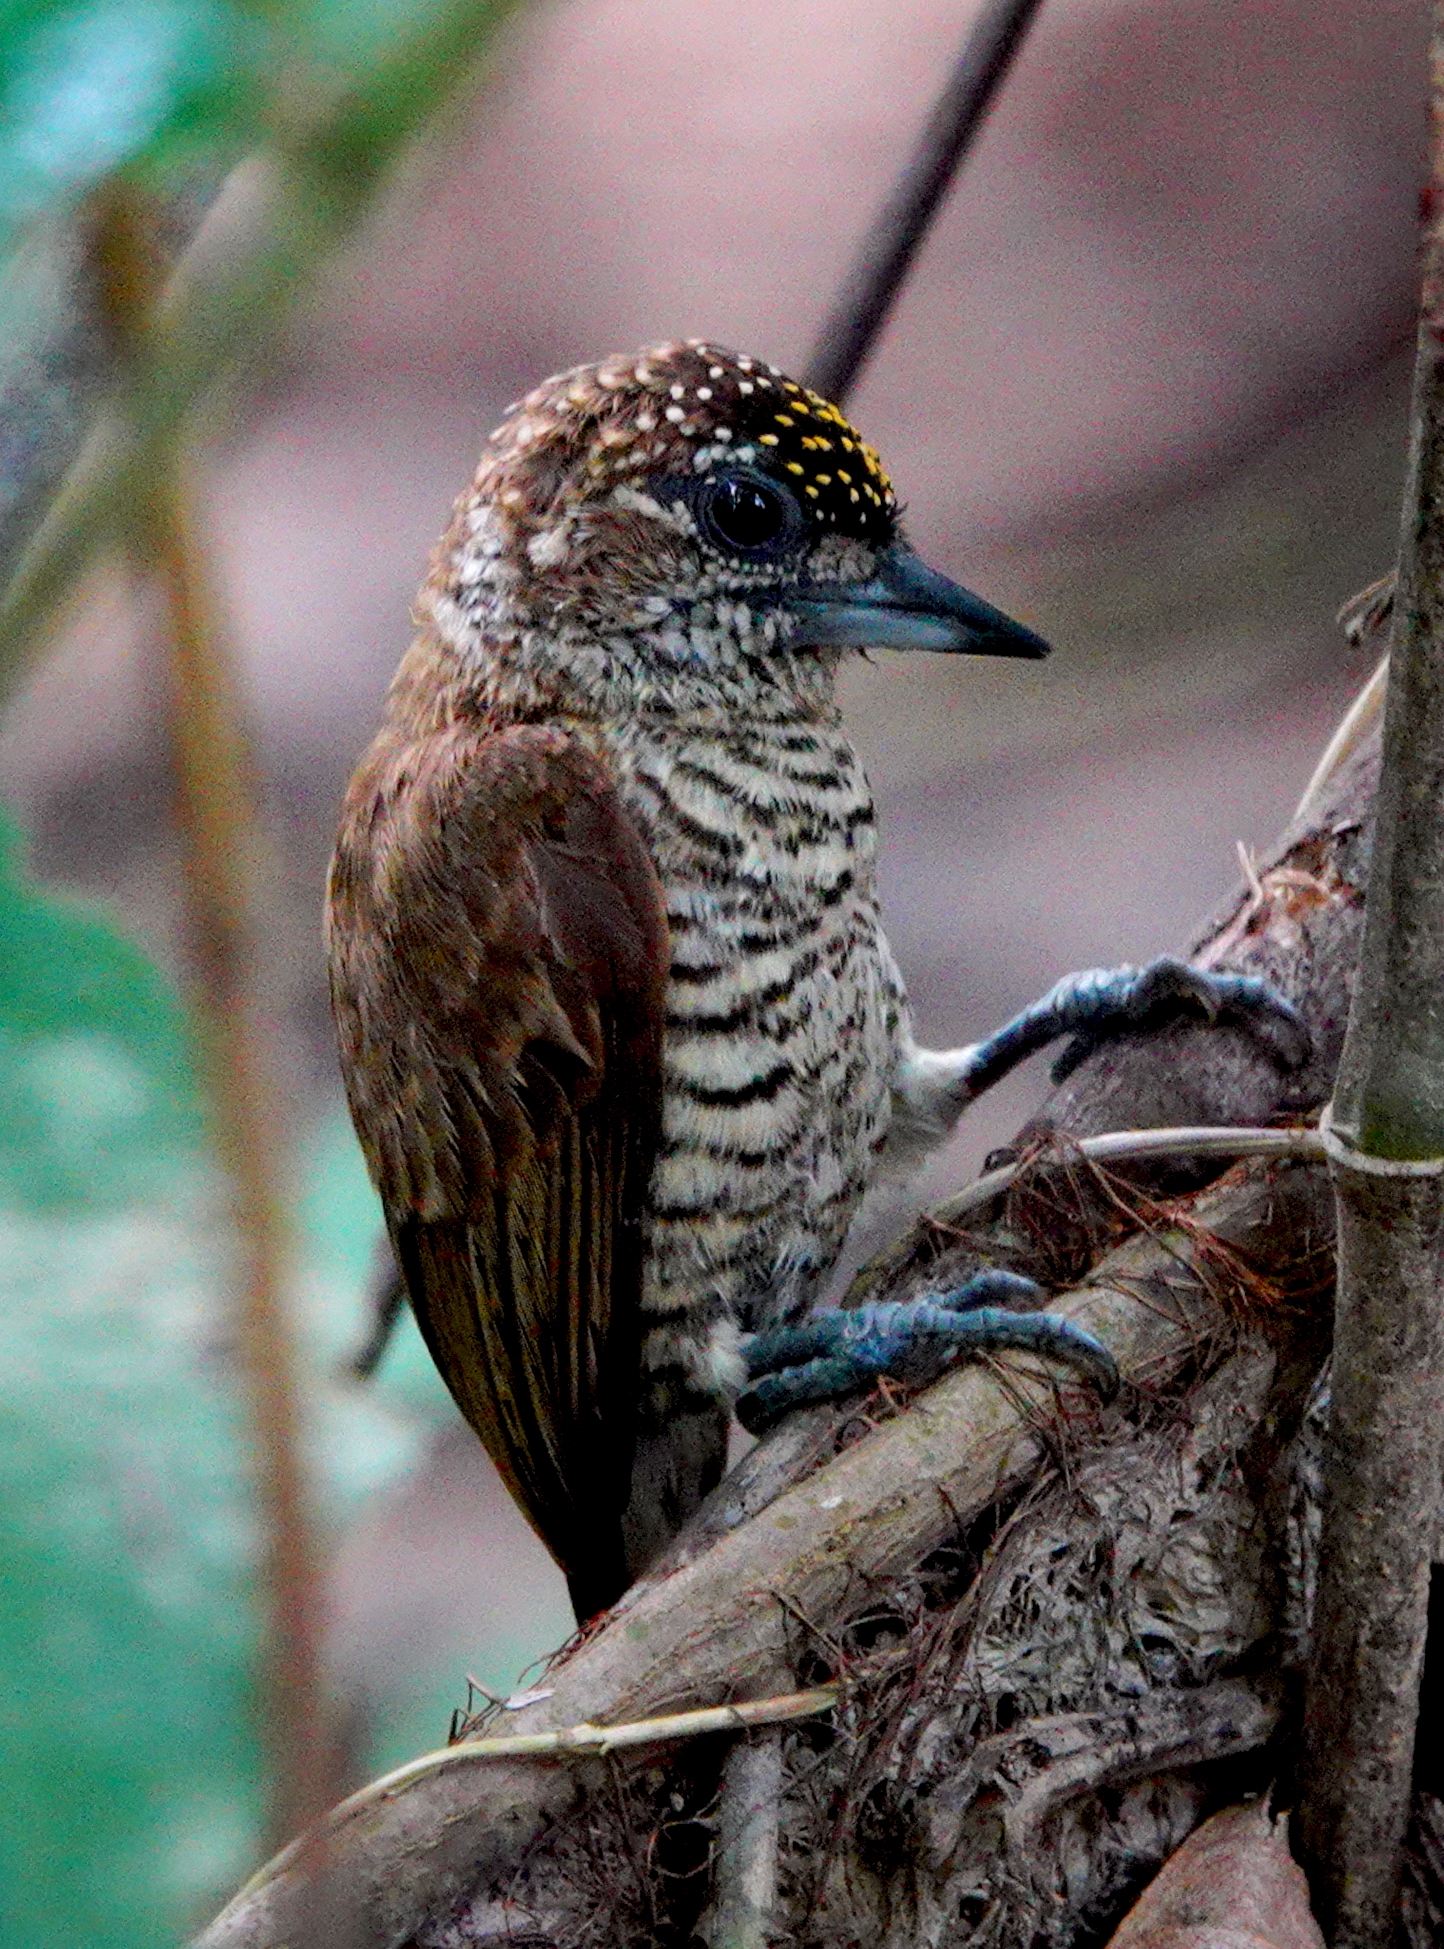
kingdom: Animalia
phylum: Chordata
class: Aves
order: Piciformes
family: Picidae
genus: Picumnus
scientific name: Picumnus pumilus
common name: Orinoco piculet
